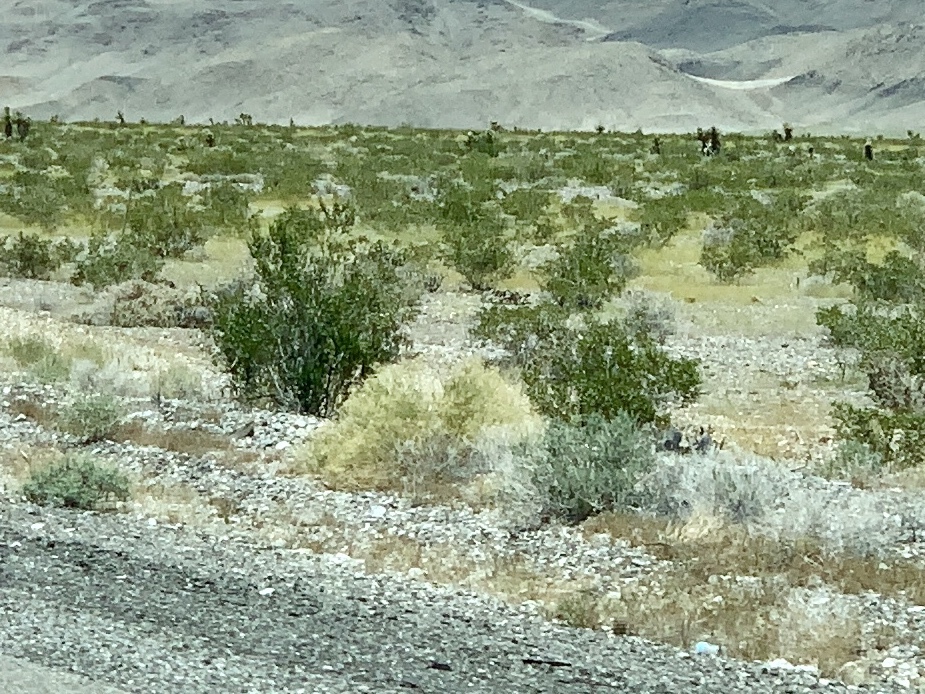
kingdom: Plantae
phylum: Tracheophyta
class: Magnoliopsida
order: Zygophyllales
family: Zygophyllaceae
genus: Larrea
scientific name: Larrea tridentata
